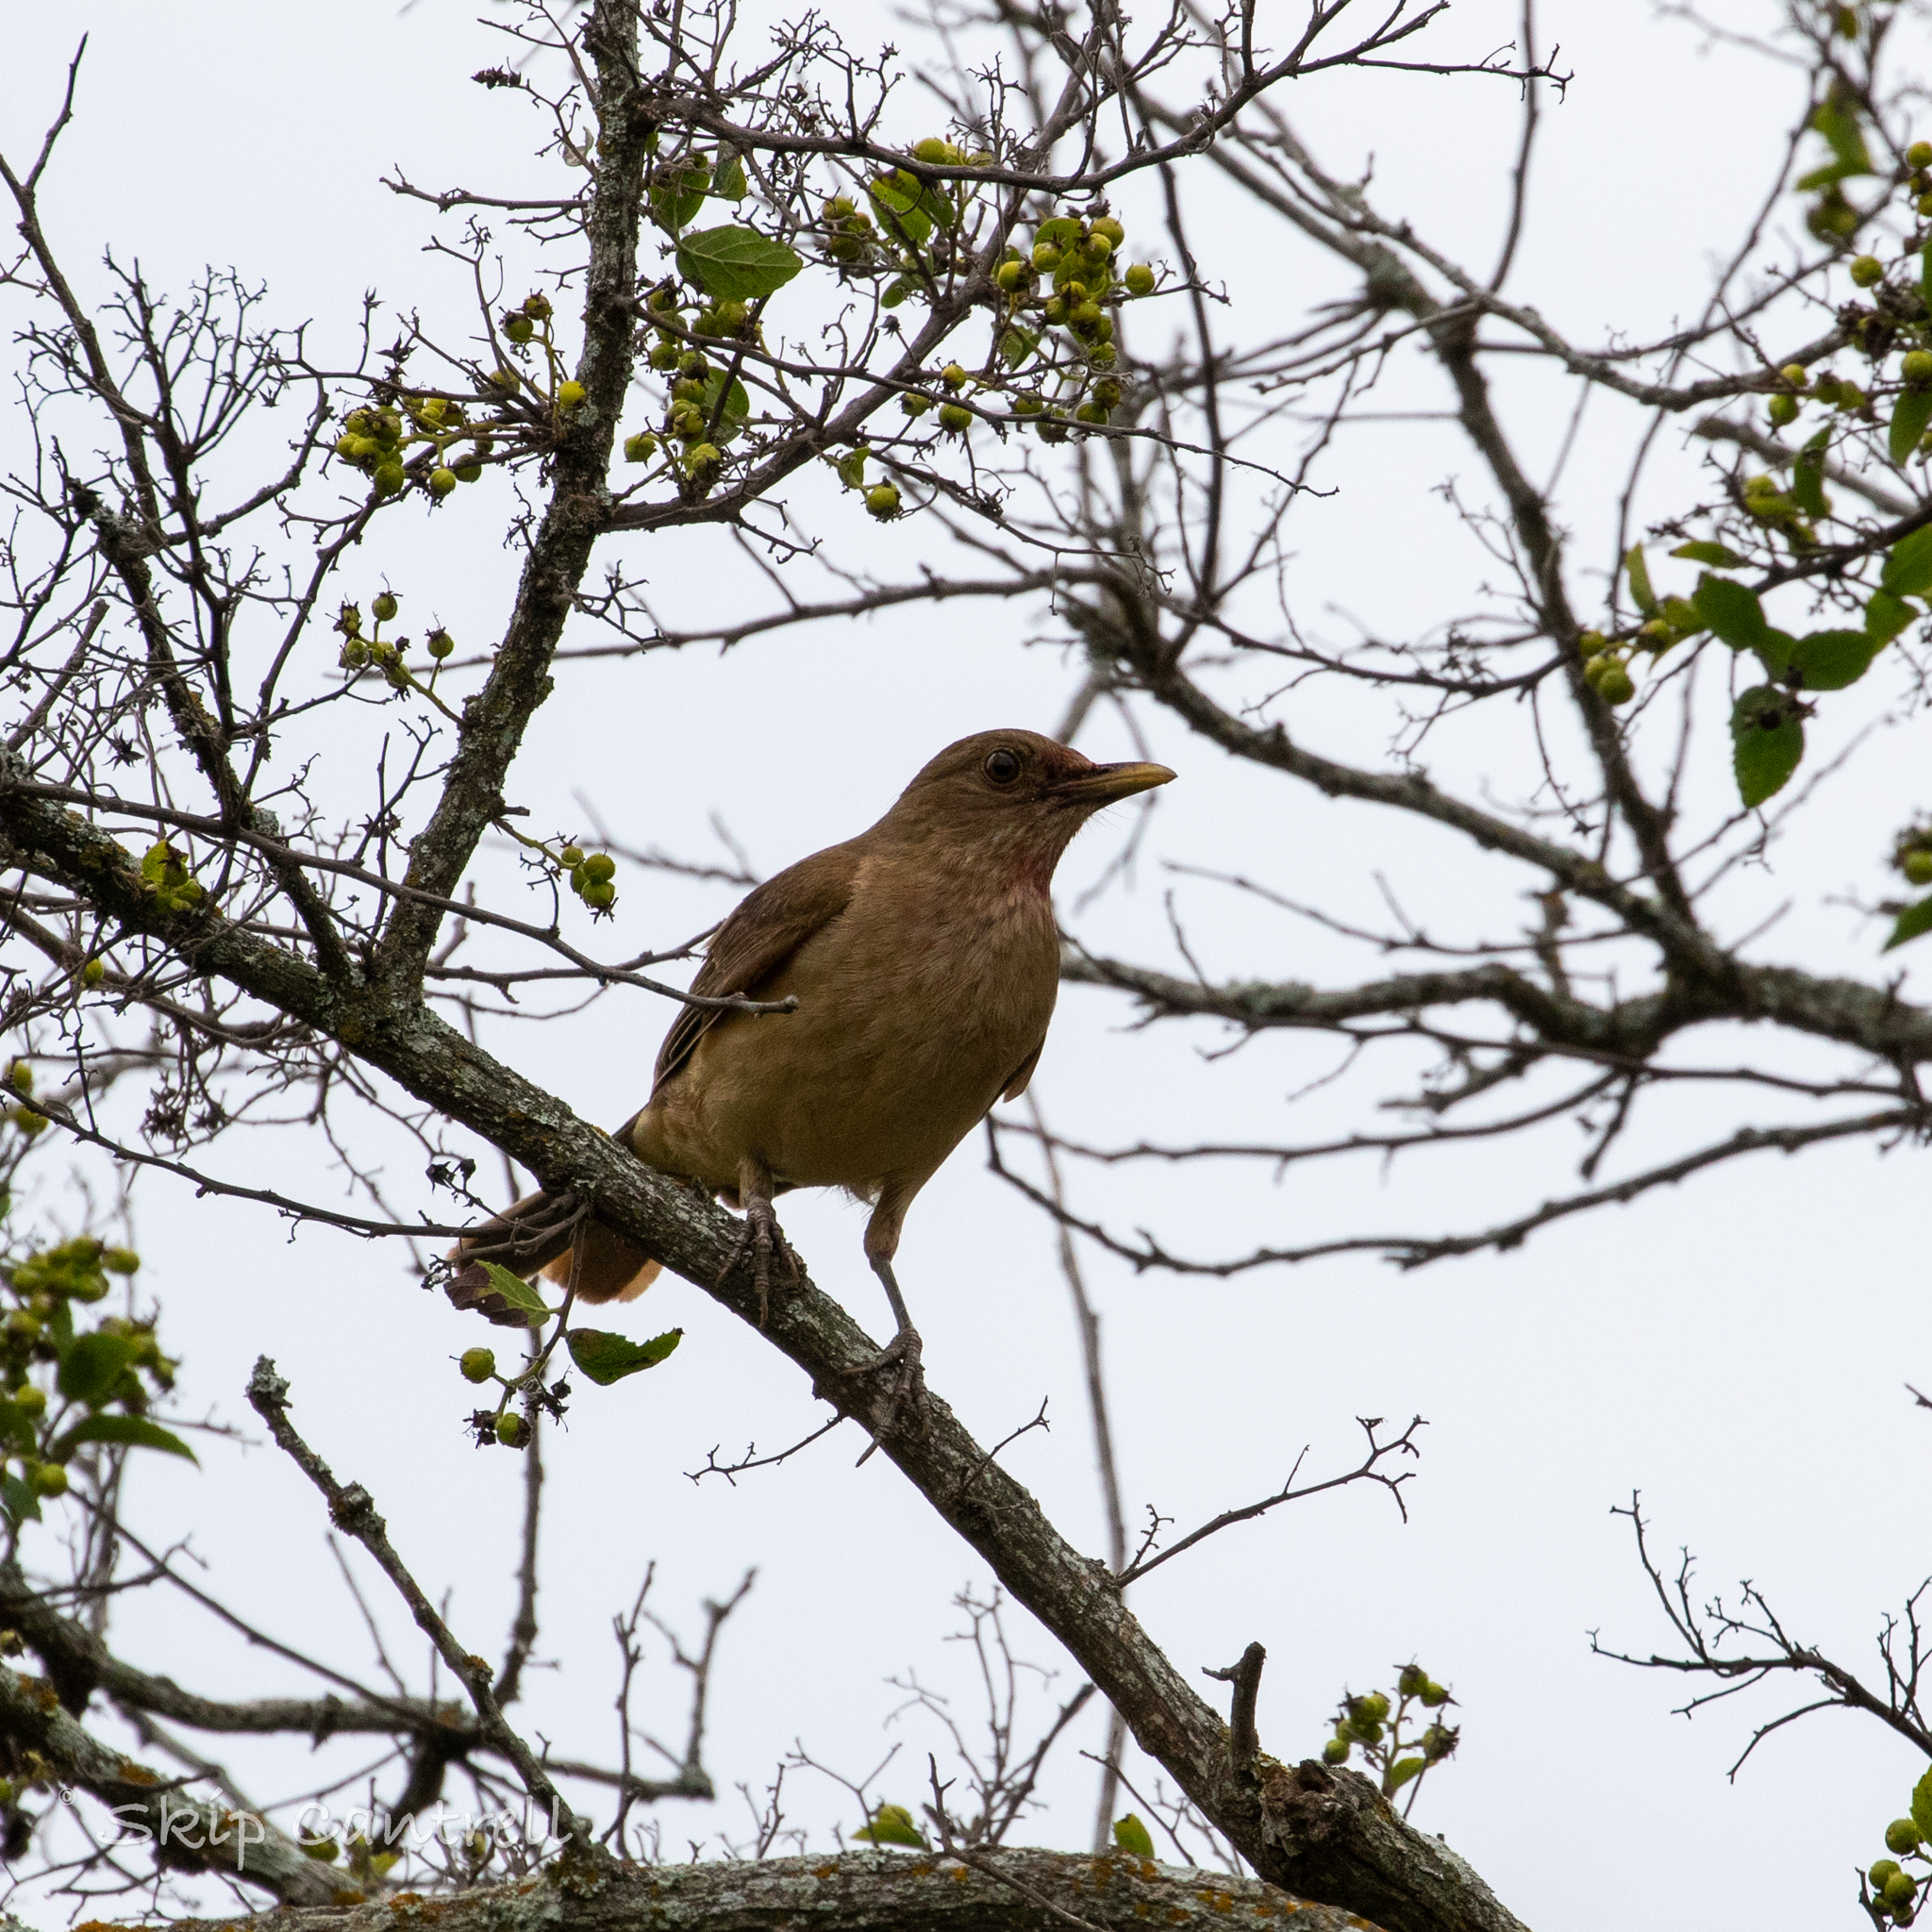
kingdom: Animalia
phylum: Chordata
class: Aves
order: Passeriformes
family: Turdidae
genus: Turdus
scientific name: Turdus grayi
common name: Clay-colored thrush
